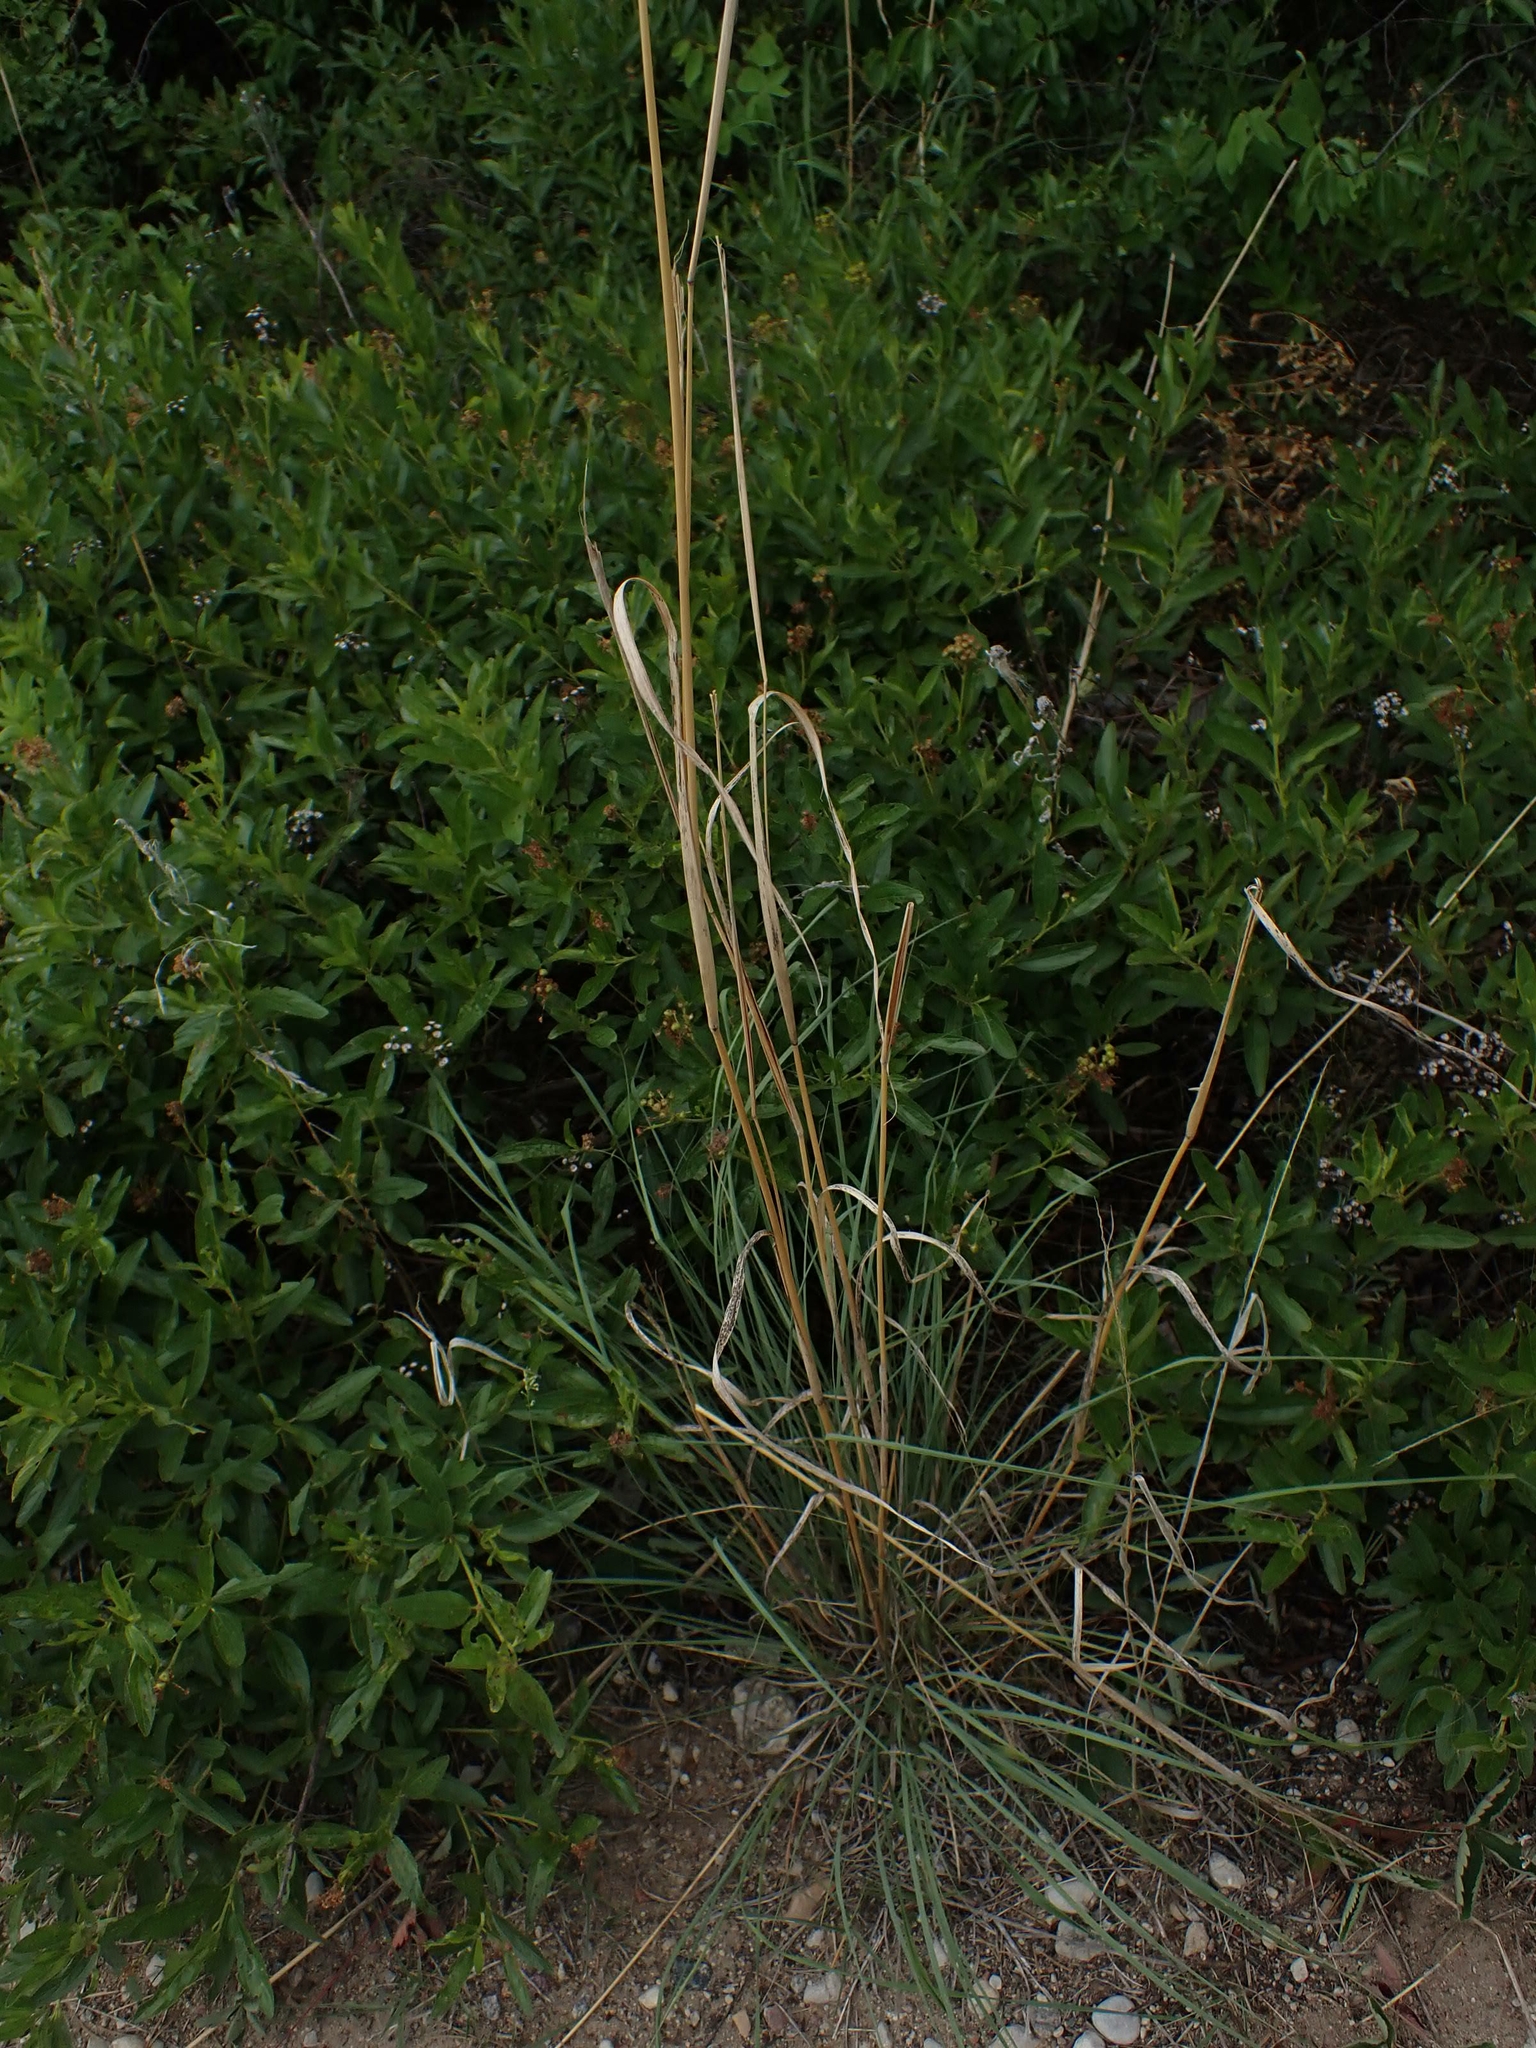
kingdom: Plantae
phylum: Tracheophyta
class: Liliopsida
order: Poales
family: Poaceae
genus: Andropogon
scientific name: Andropogon gerardi
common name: Big bluestem
